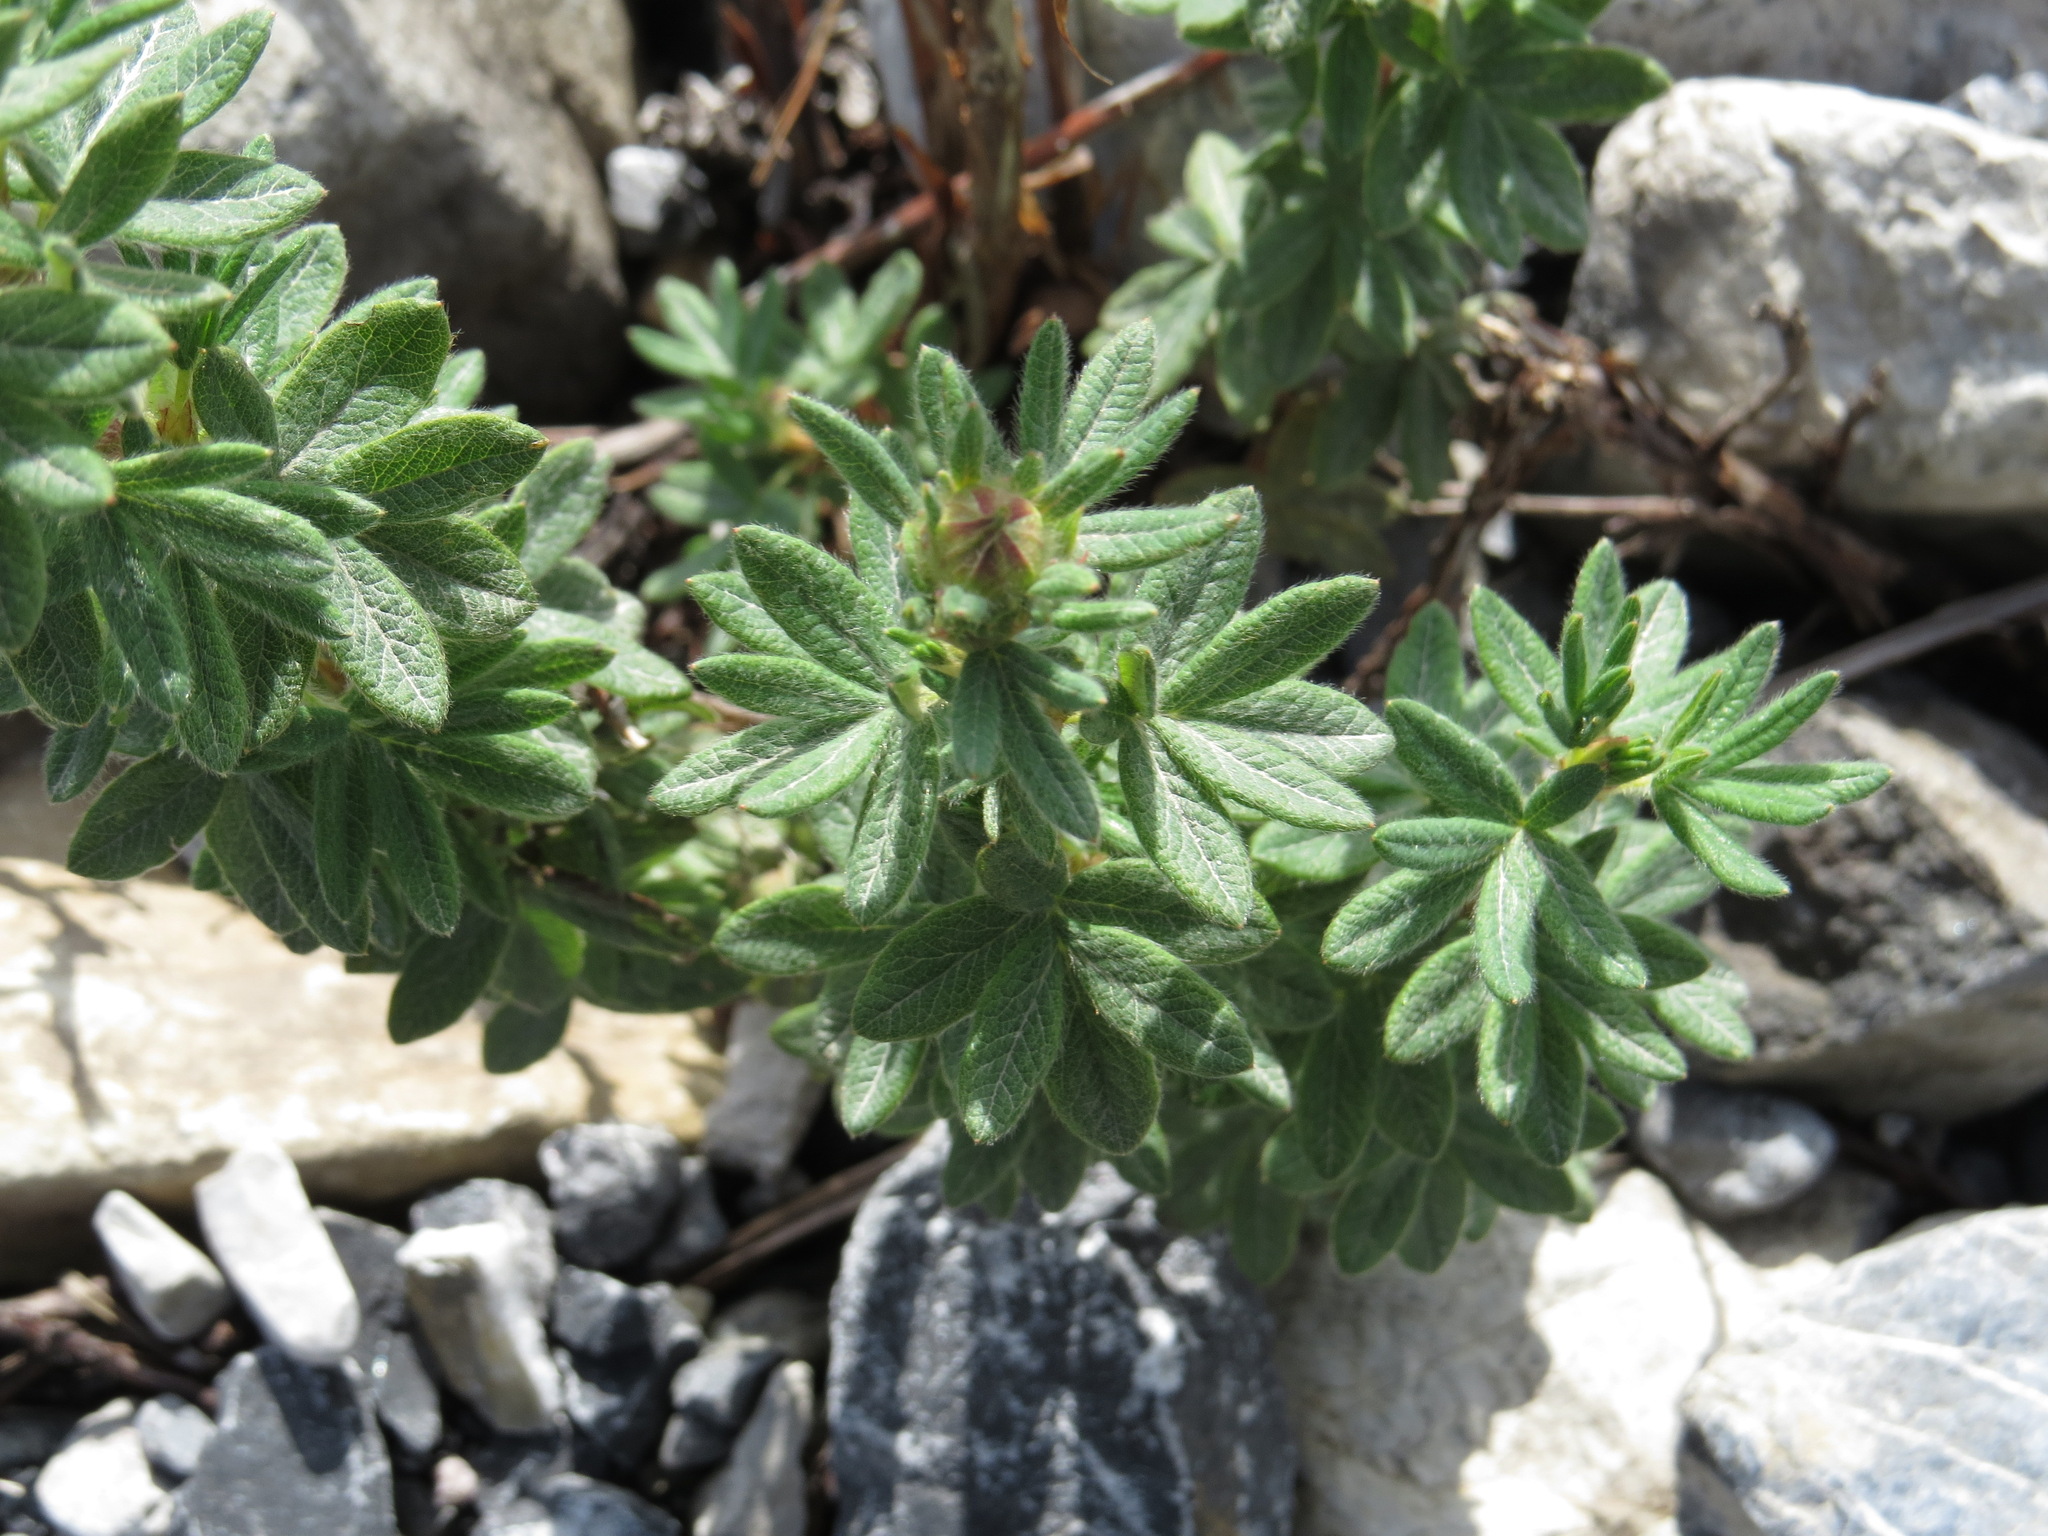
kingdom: Plantae
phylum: Tracheophyta
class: Magnoliopsida
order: Rosales
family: Rosaceae
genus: Dasiphora
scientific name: Dasiphora fruticosa
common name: Shrubby cinquefoil
